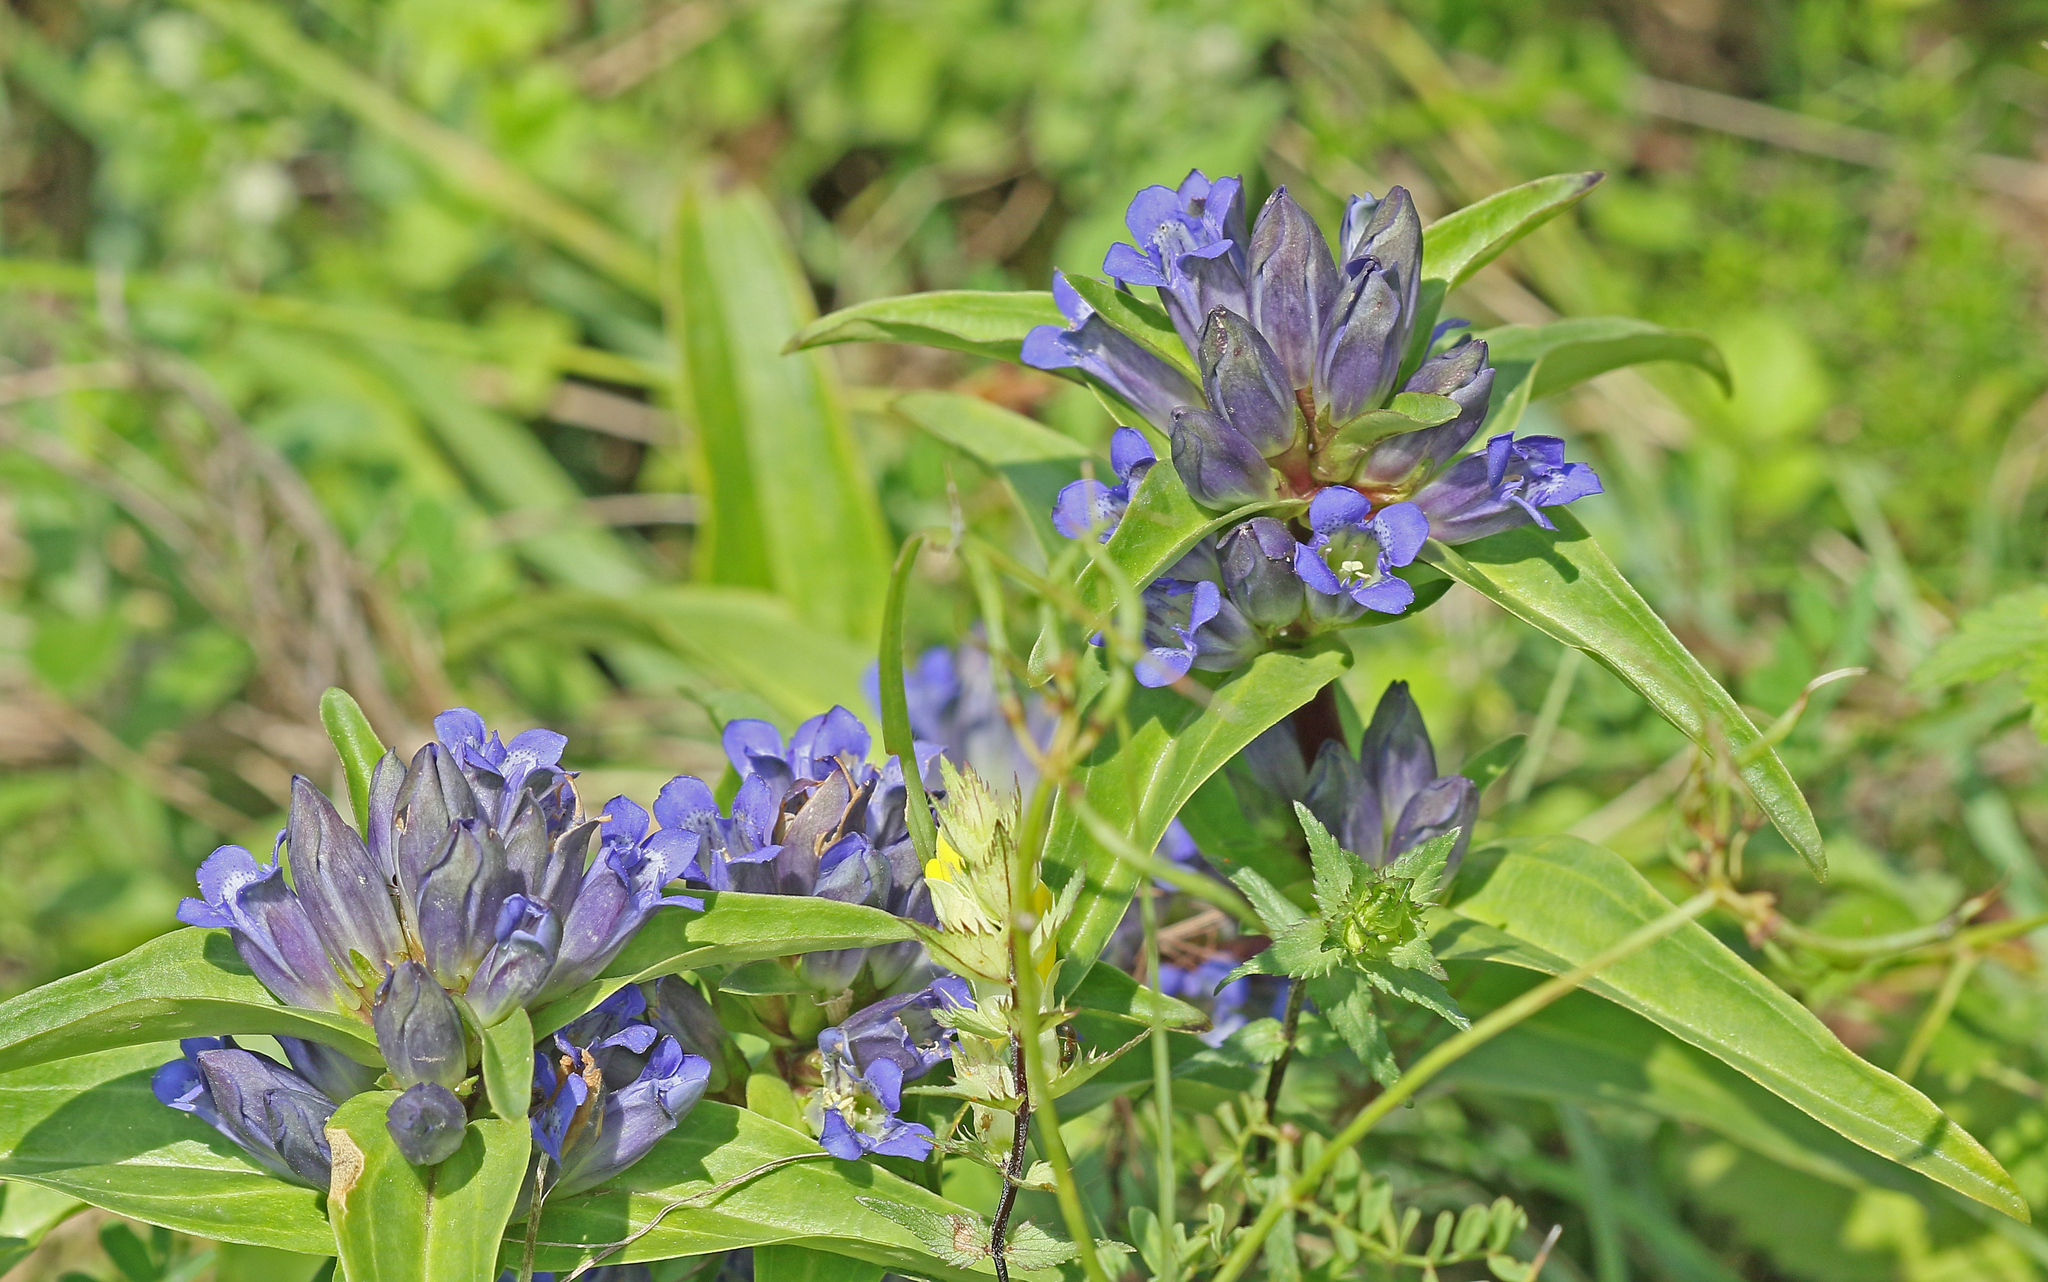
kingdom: Plantae
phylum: Tracheophyta
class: Magnoliopsida
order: Gentianales
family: Gentianaceae
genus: Gentiana
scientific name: Gentiana cruciata
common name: Cross gentian
